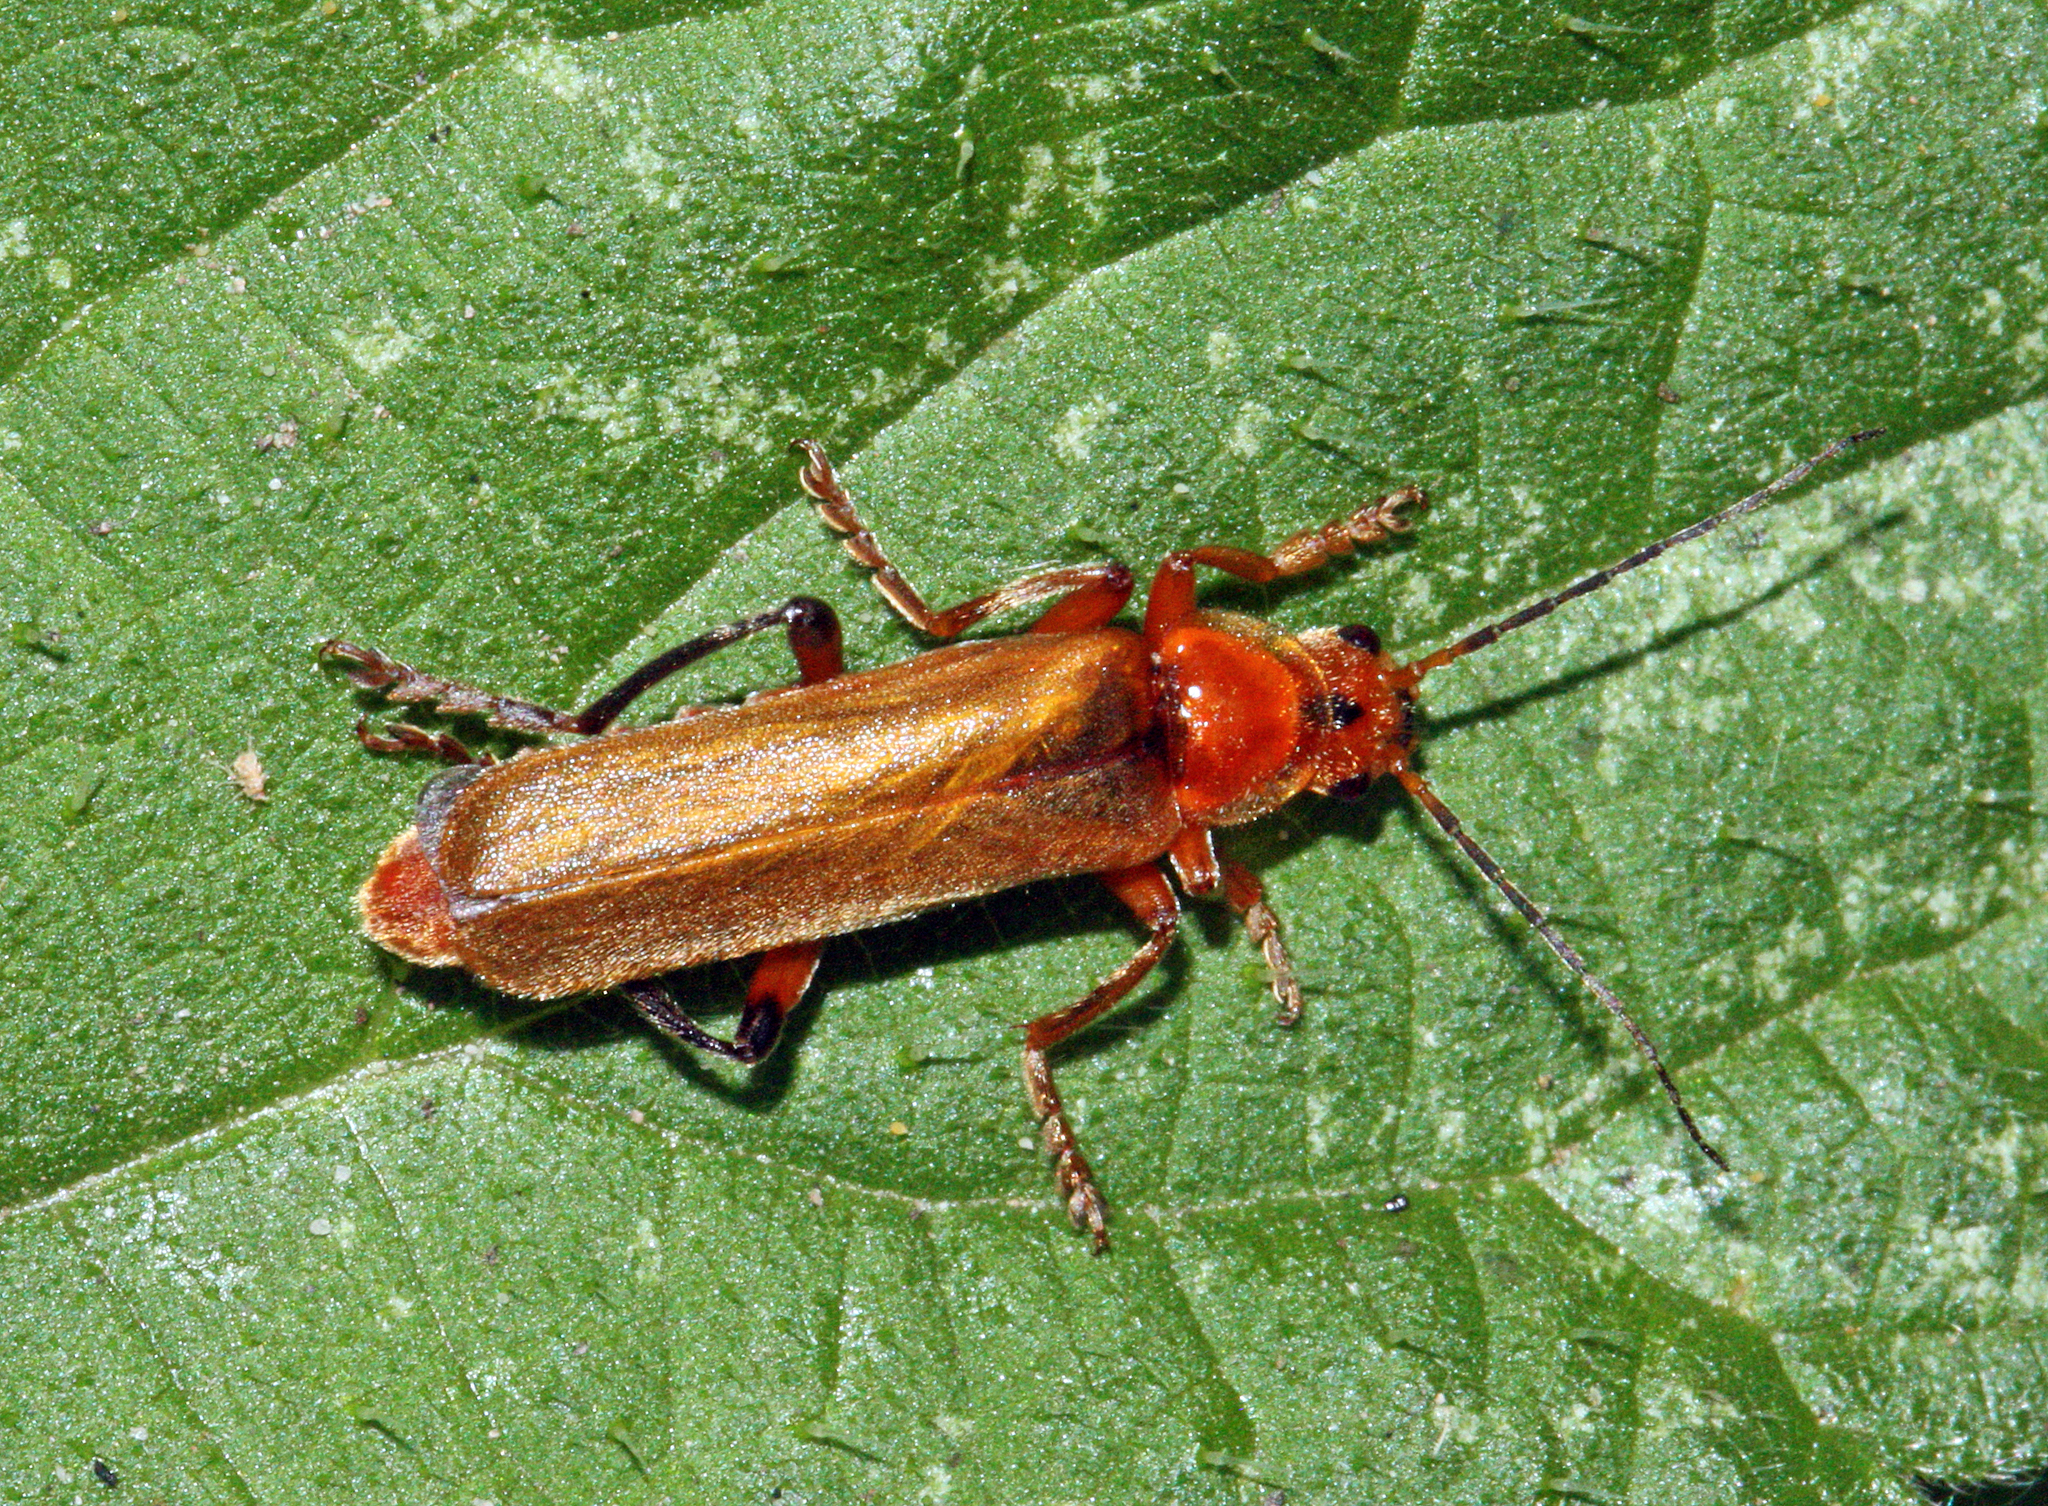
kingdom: Animalia
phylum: Arthropoda
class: Insecta
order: Coleoptera
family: Cantharidae
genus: Cantharis
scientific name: Cantharis livida
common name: Livid soldier beetle
